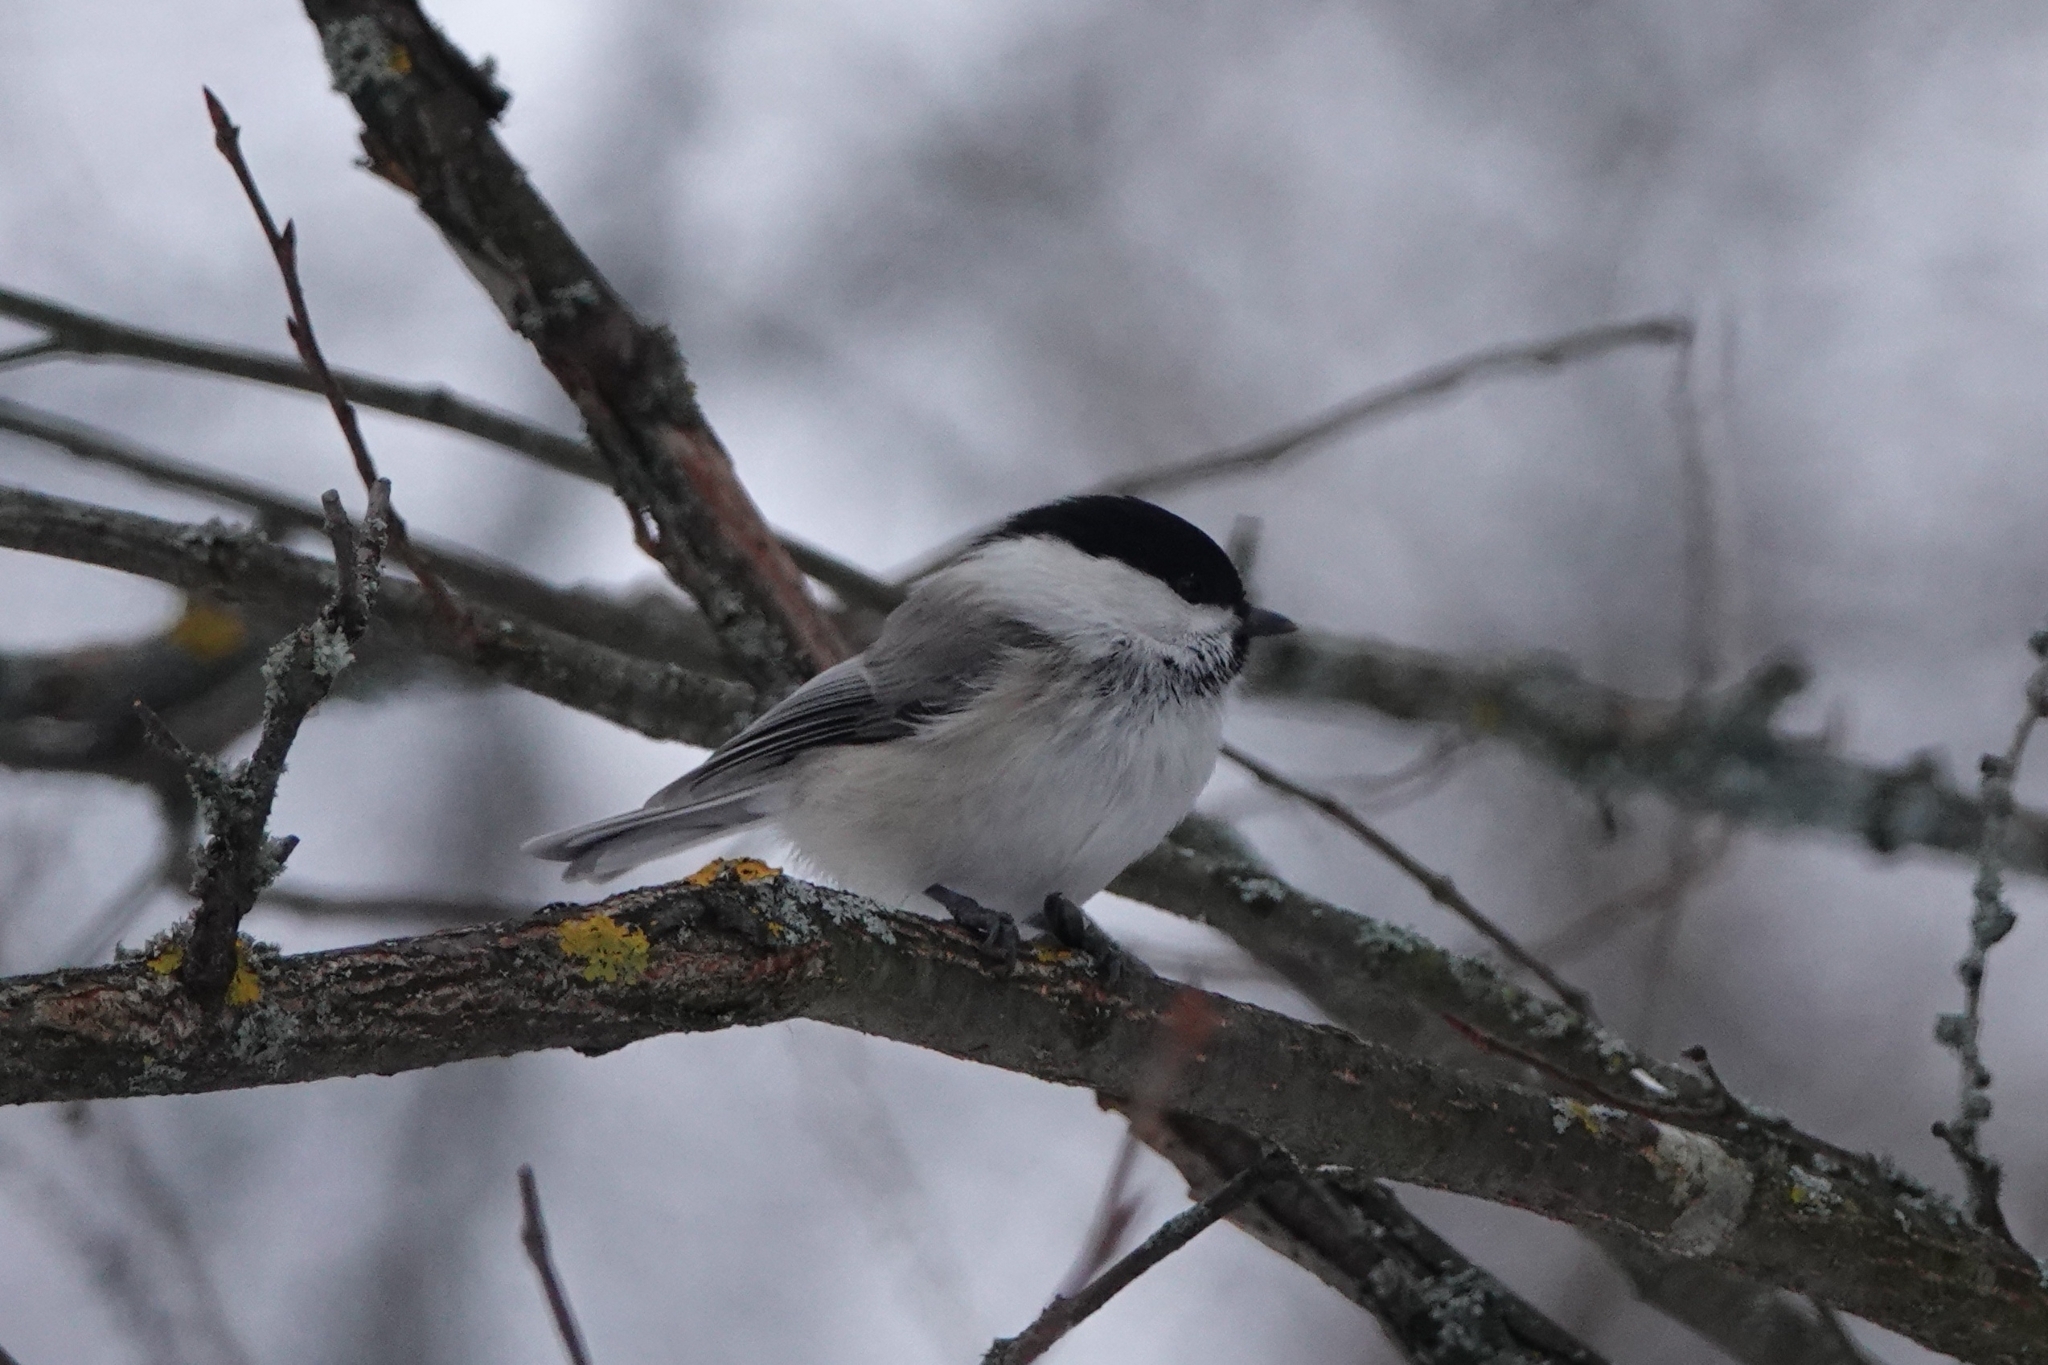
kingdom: Animalia
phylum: Chordata
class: Aves
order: Passeriformes
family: Paridae
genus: Poecile
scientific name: Poecile montanus
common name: Willow tit
